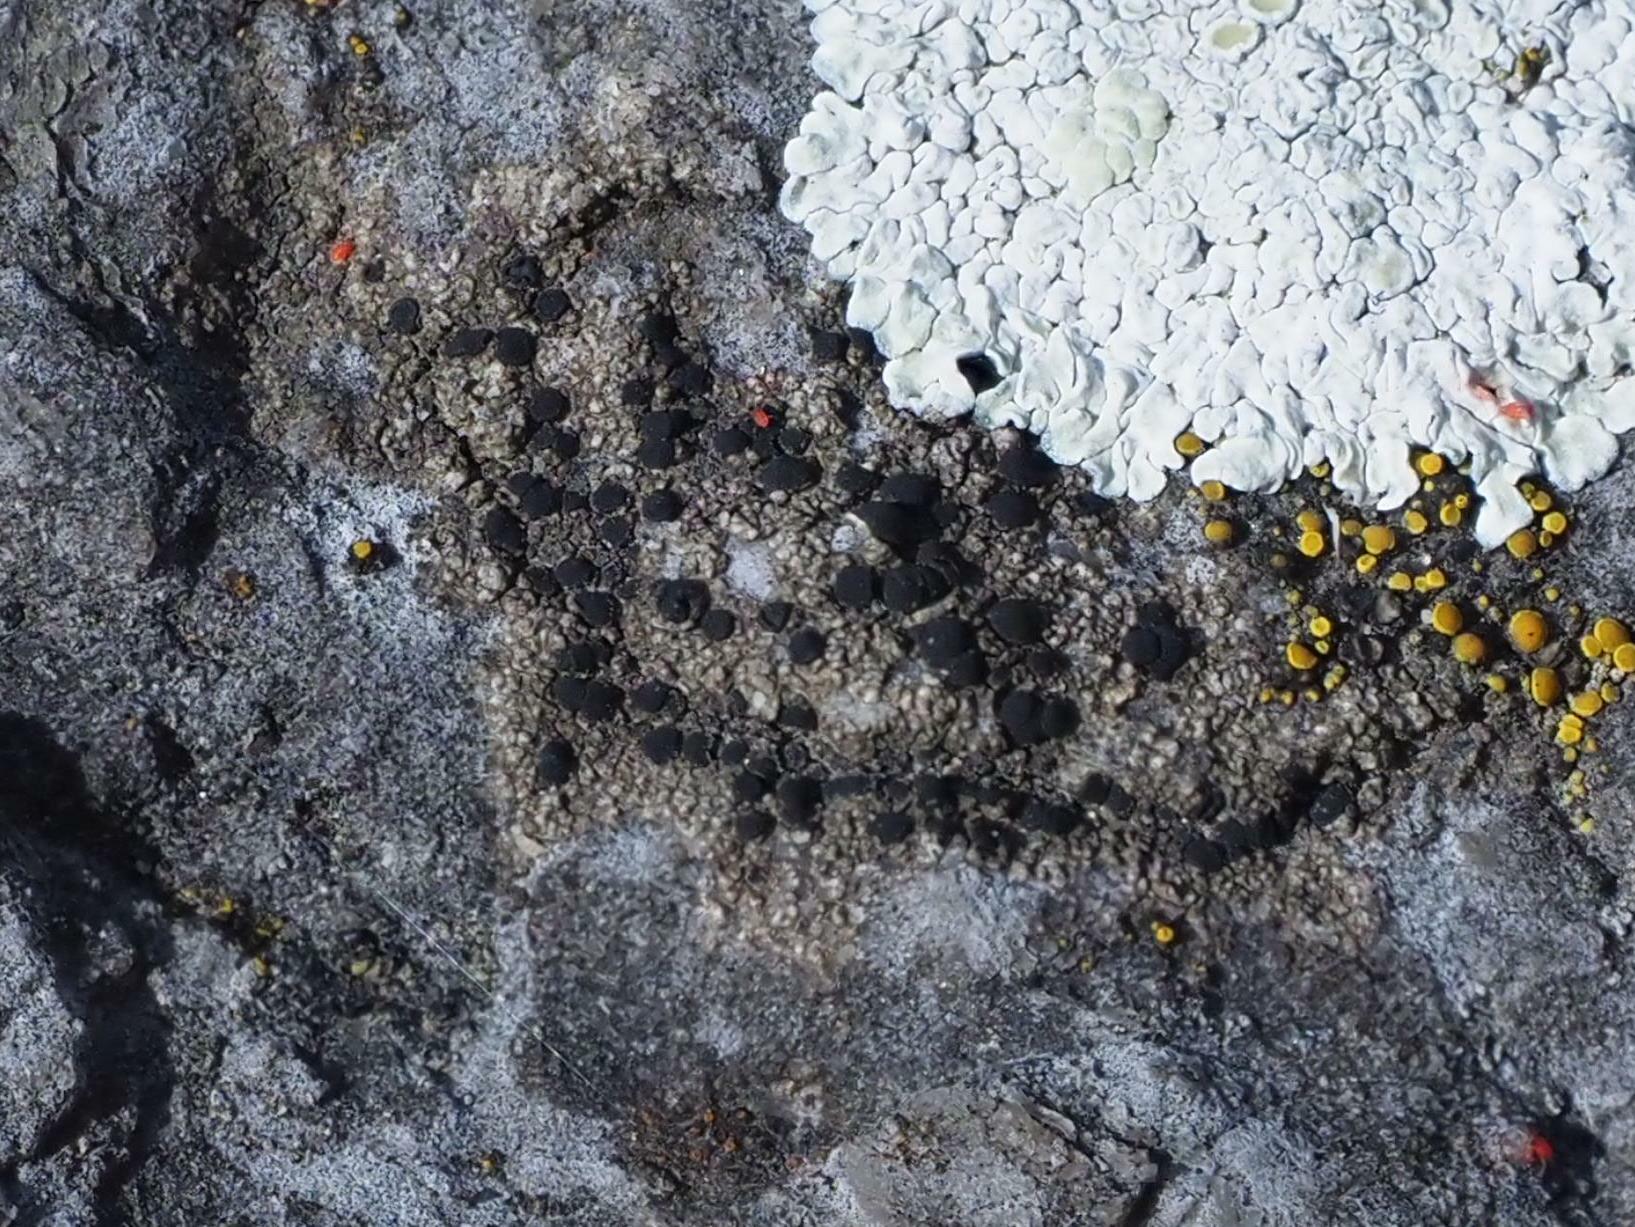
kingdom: Fungi
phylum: Ascomycota
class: Lecanoromycetes
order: Lecanorales
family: Lecanoraceae
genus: Lecidella
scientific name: Lecidella stigmatea
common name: Limestone disc lichen
